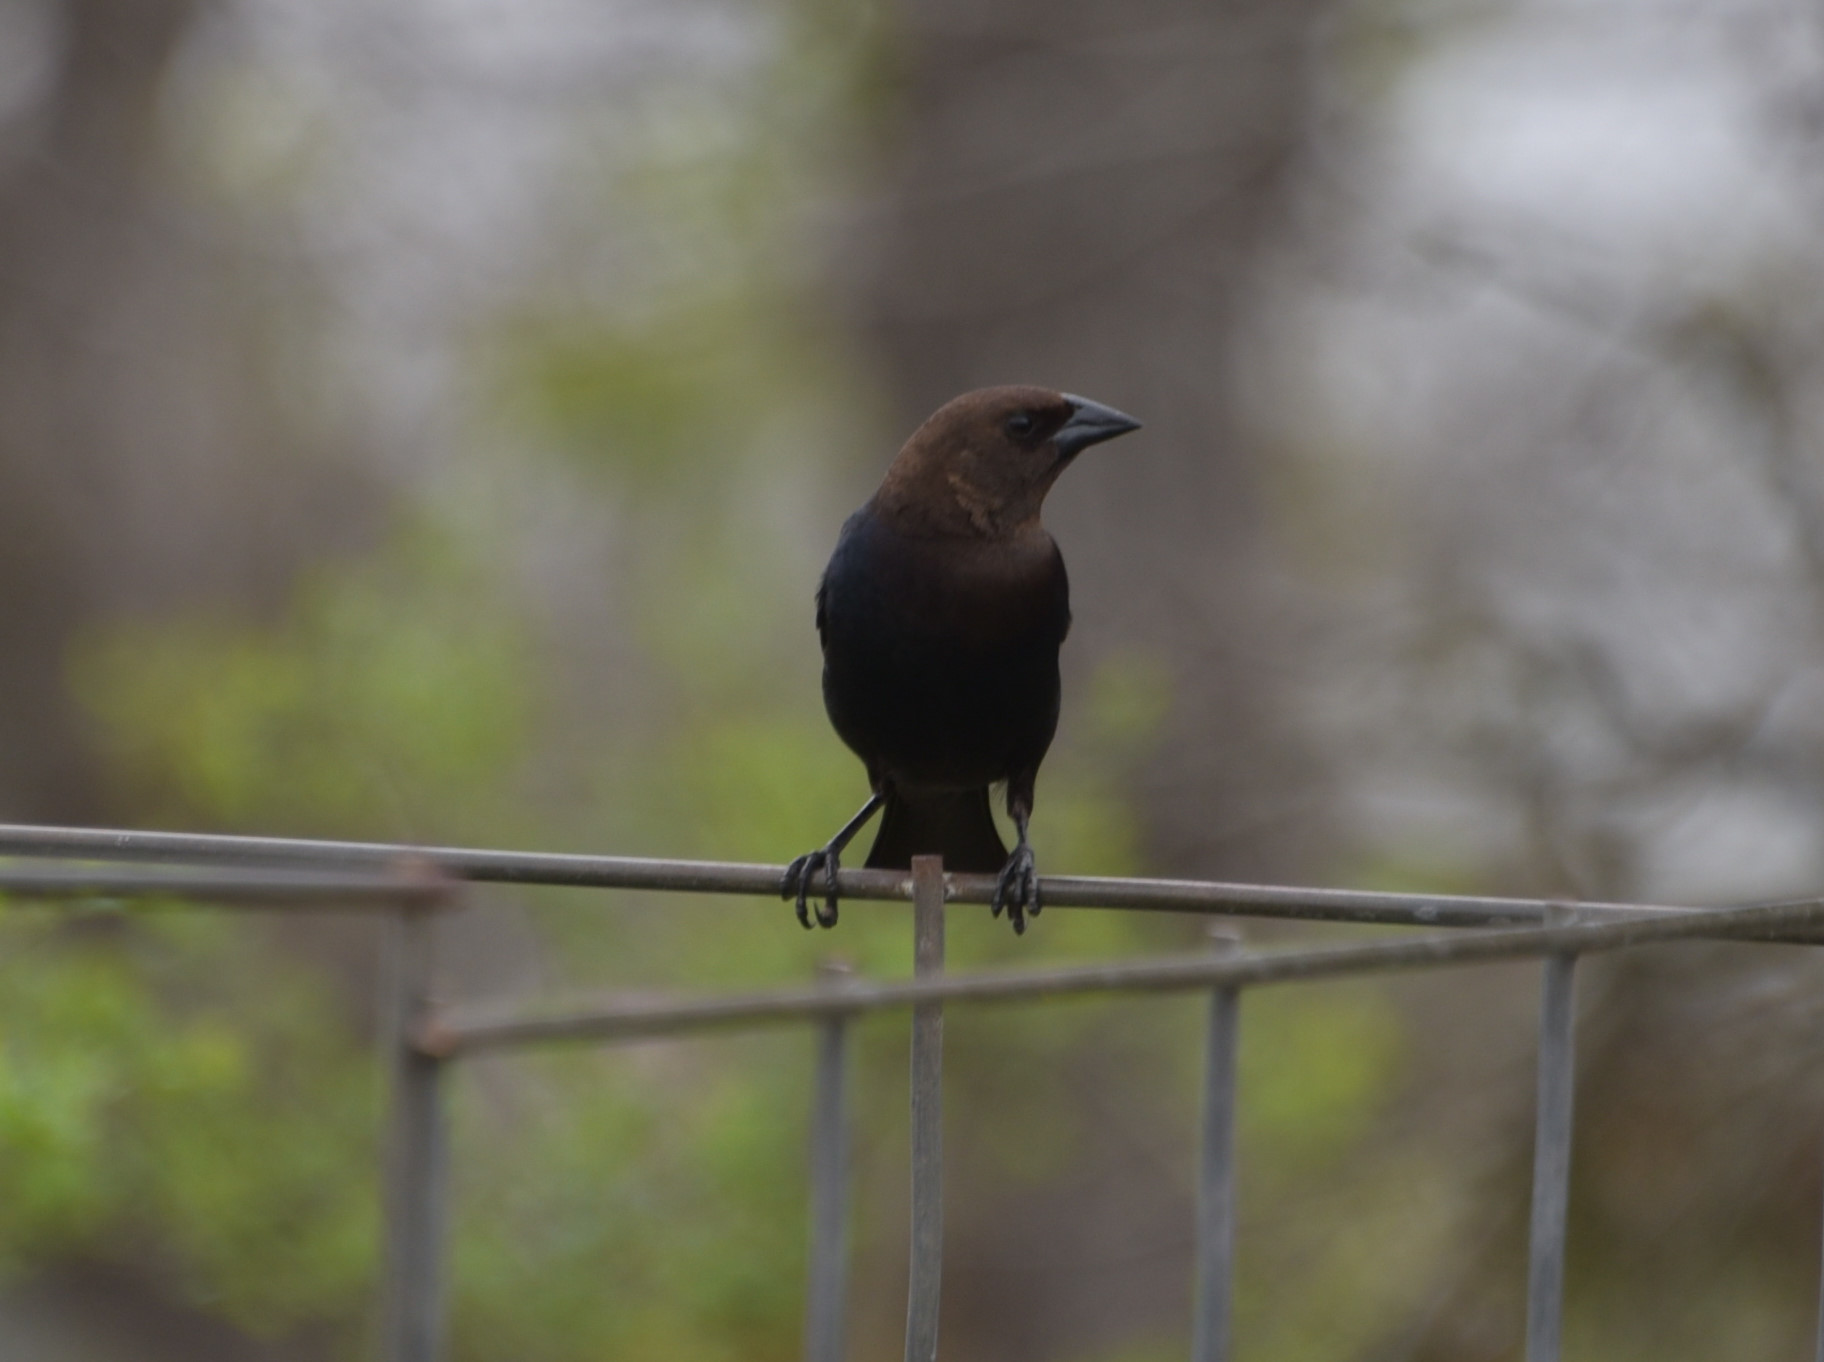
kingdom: Animalia
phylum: Chordata
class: Aves
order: Passeriformes
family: Icteridae
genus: Molothrus
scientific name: Molothrus ater
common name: Brown-headed cowbird
